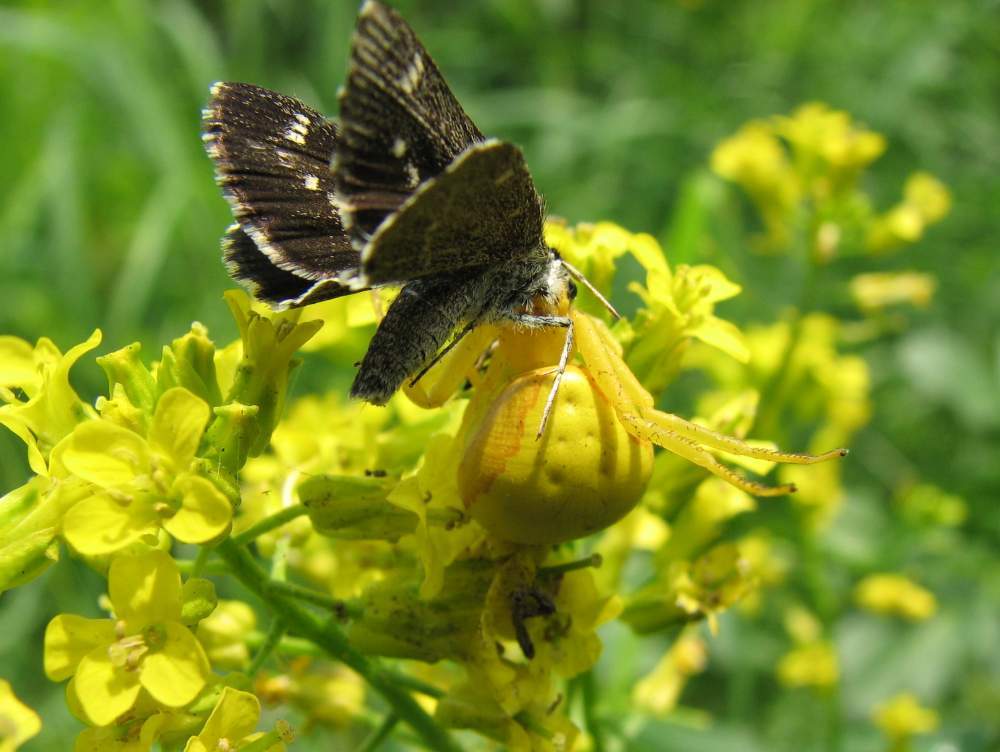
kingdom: Animalia
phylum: Arthropoda
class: Insecta
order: Lepidoptera
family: Hesperiidae
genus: Mastor
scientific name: Mastor hegon
